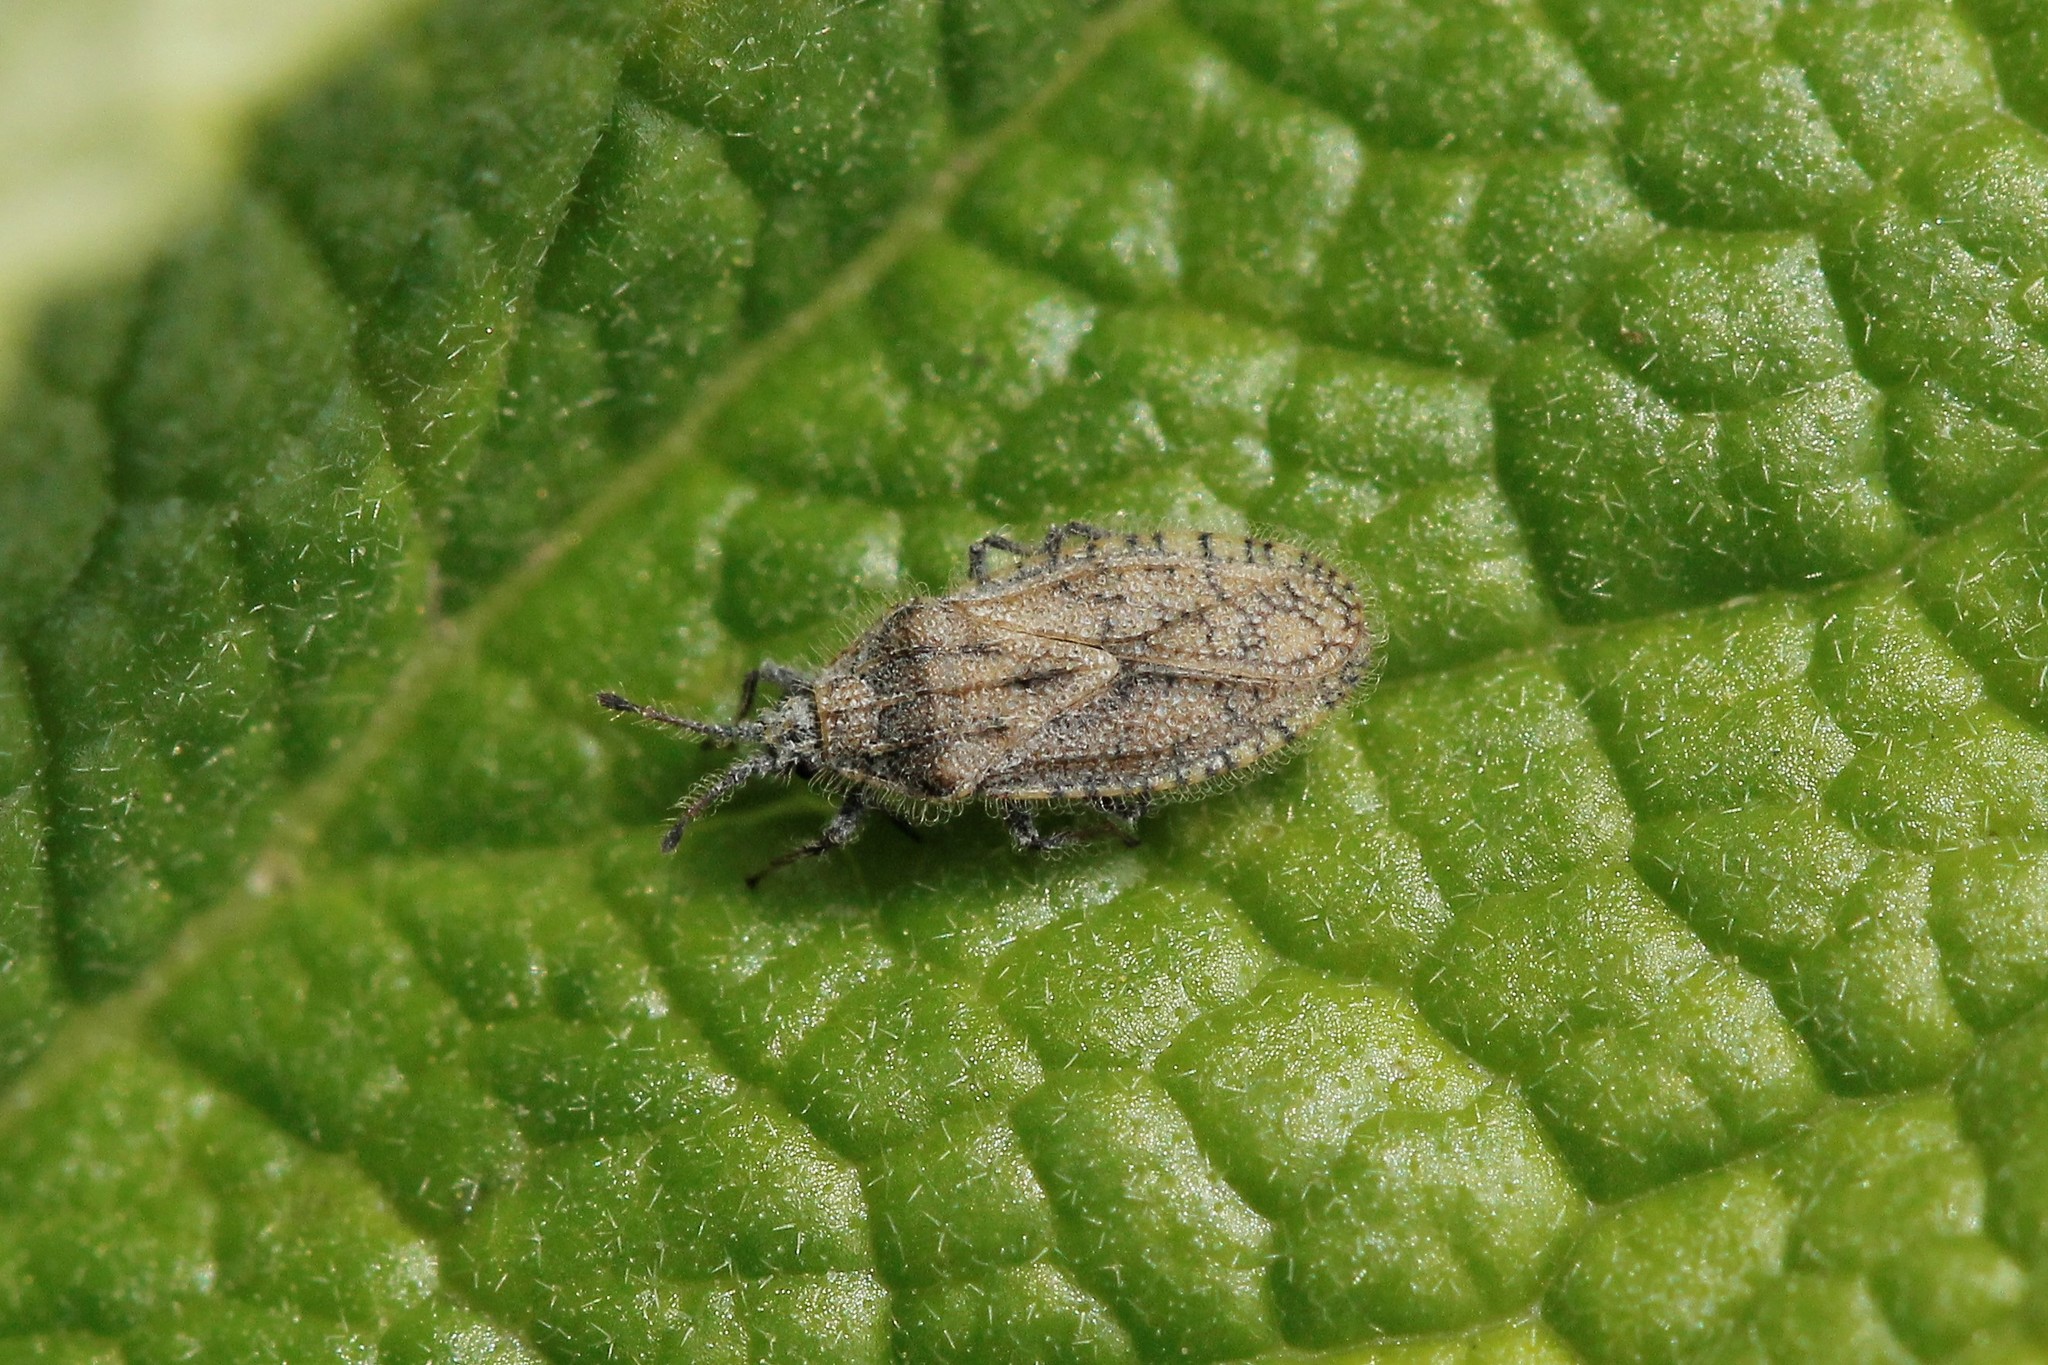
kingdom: Animalia
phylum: Arthropoda
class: Insecta
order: Hemiptera
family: Tingidae
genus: Tingis
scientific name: Tingis pauperata
